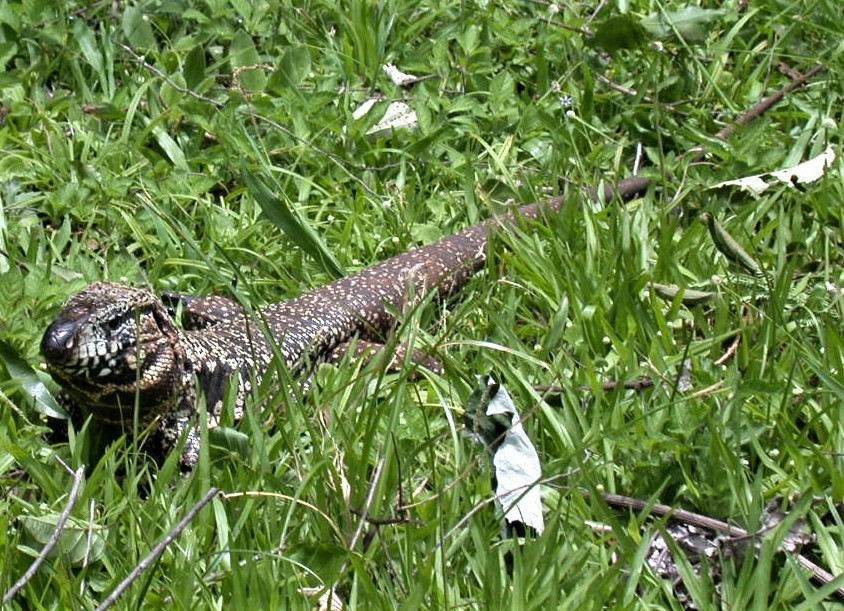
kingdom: Animalia
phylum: Chordata
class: Squamata
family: Teiidae
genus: Salvator
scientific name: Salvator merianae
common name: Argentine black and white tegu
